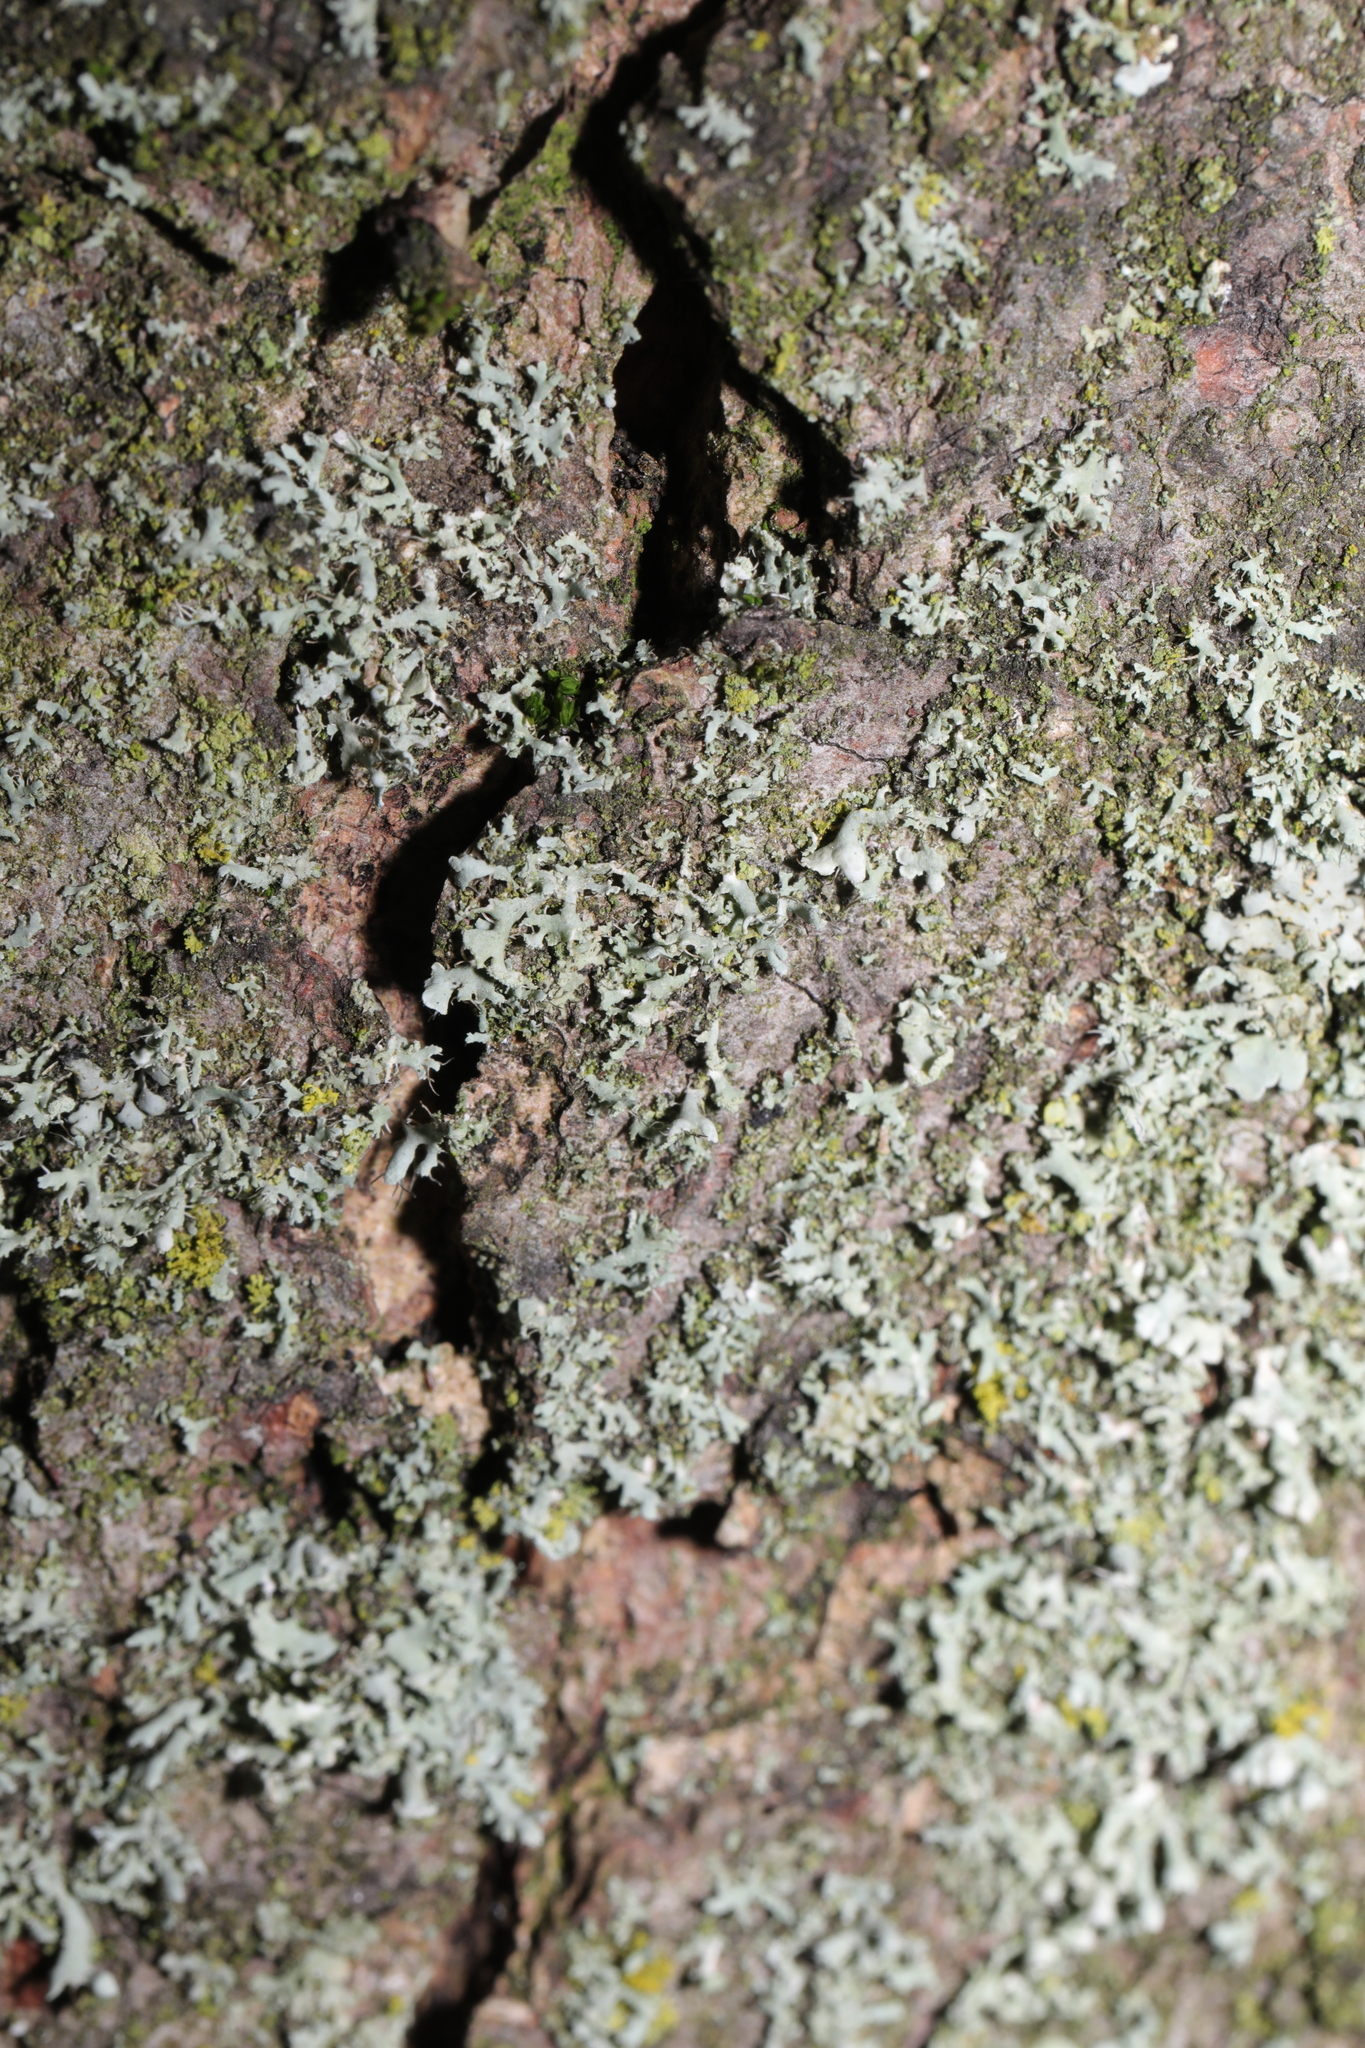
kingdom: Fungi
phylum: Ascomycota
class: Lecanoromycetes
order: Caliciales
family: Physciaceae
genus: Physcia
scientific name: Physcia adscendens
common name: Hooded rosette lichen
